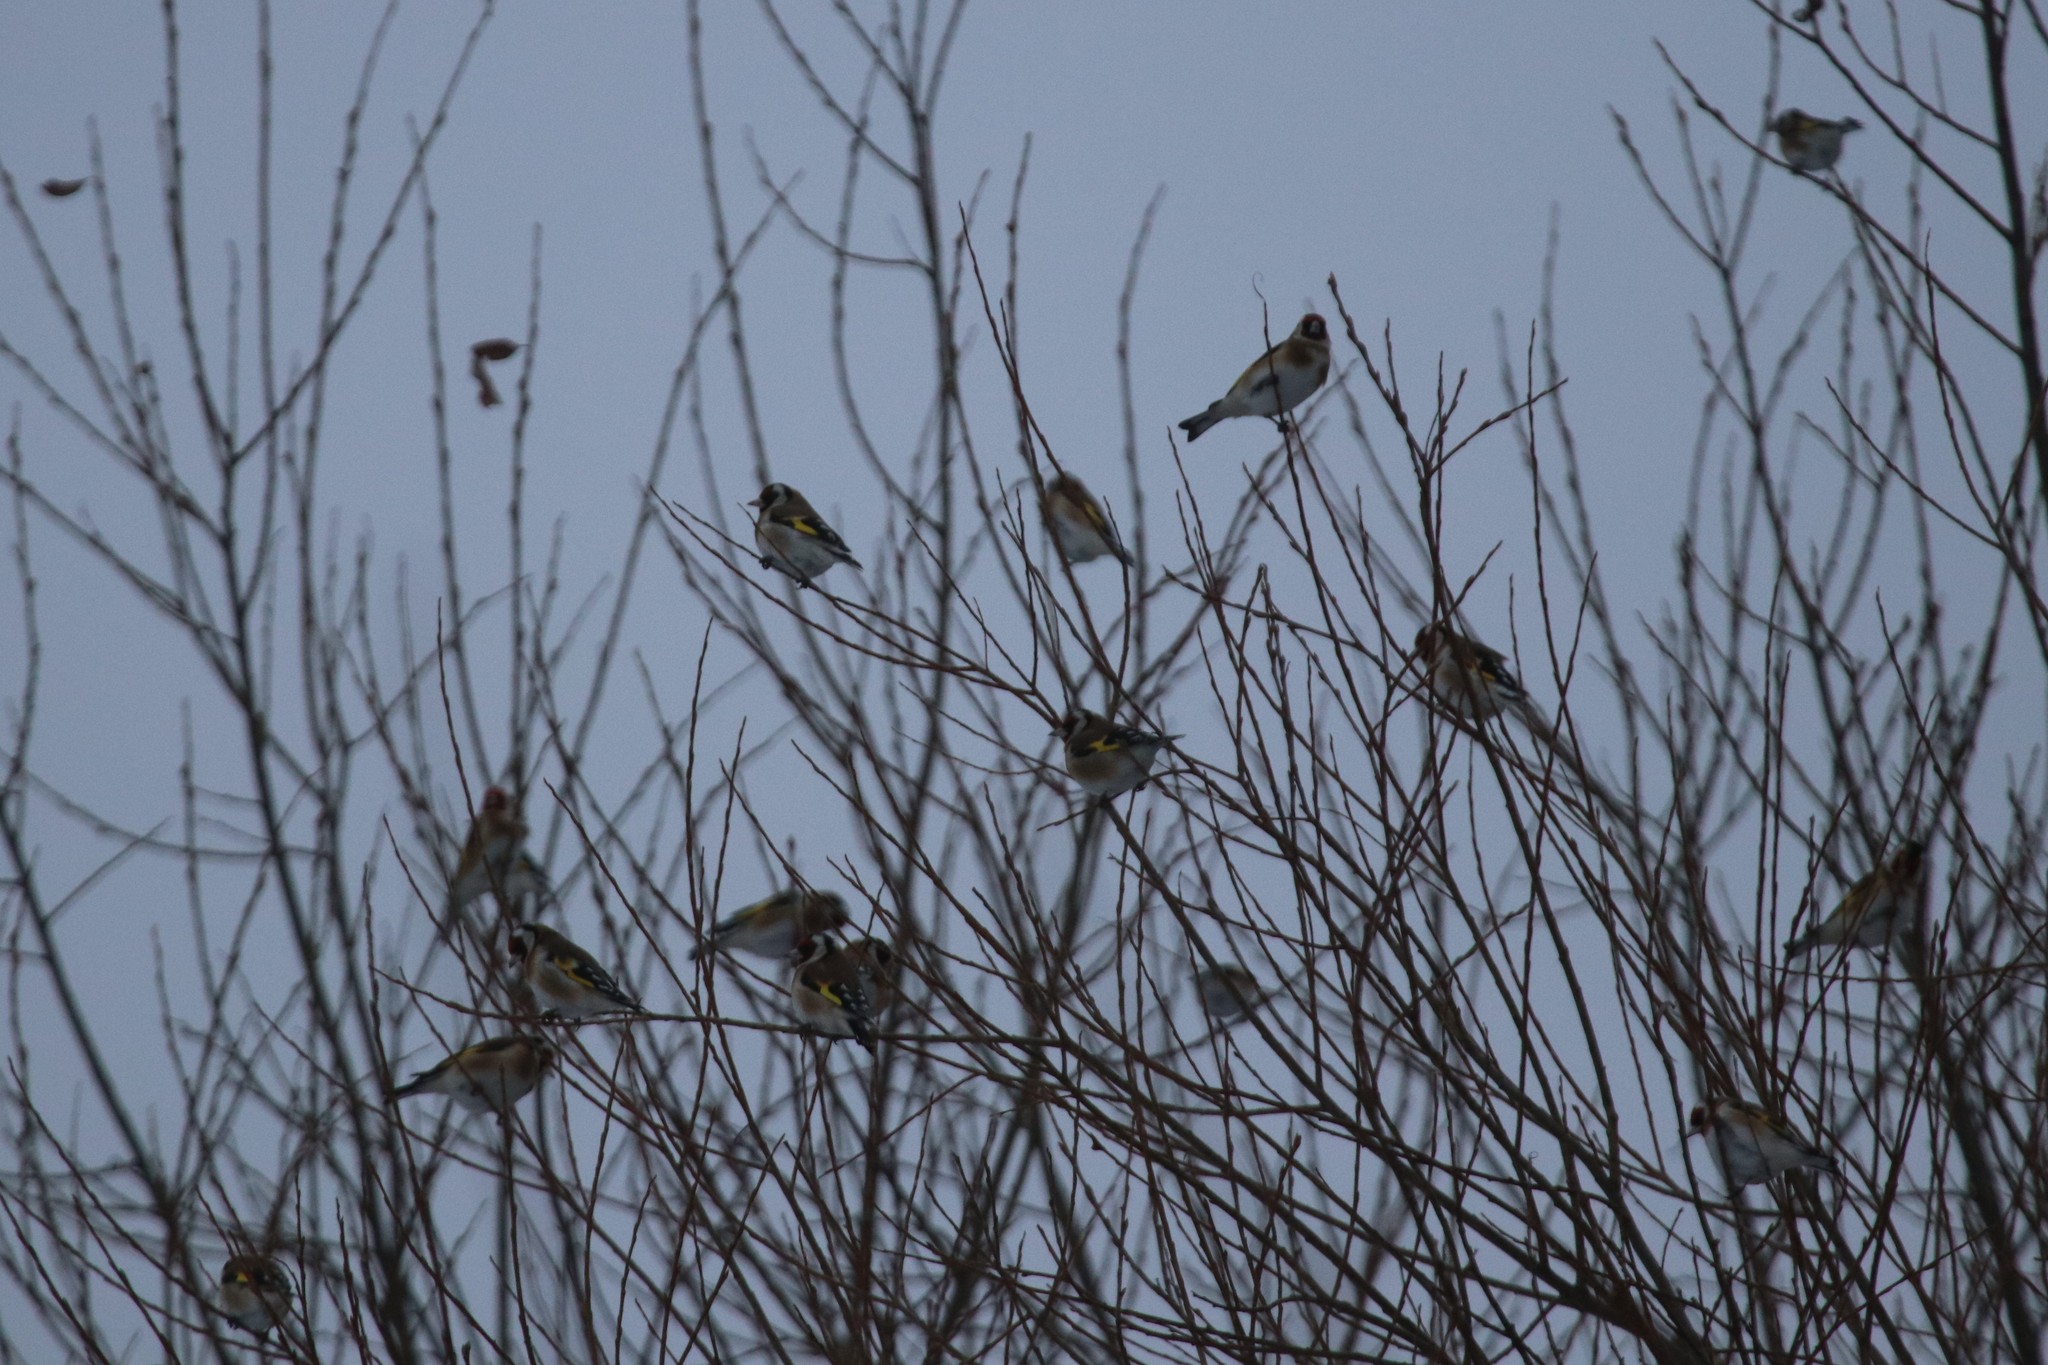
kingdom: Animalia
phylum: Chordata
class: Aves
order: Passeriformes
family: Fringillidae
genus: Carduelis
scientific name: Carduelis carduelis
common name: European goldfinch
